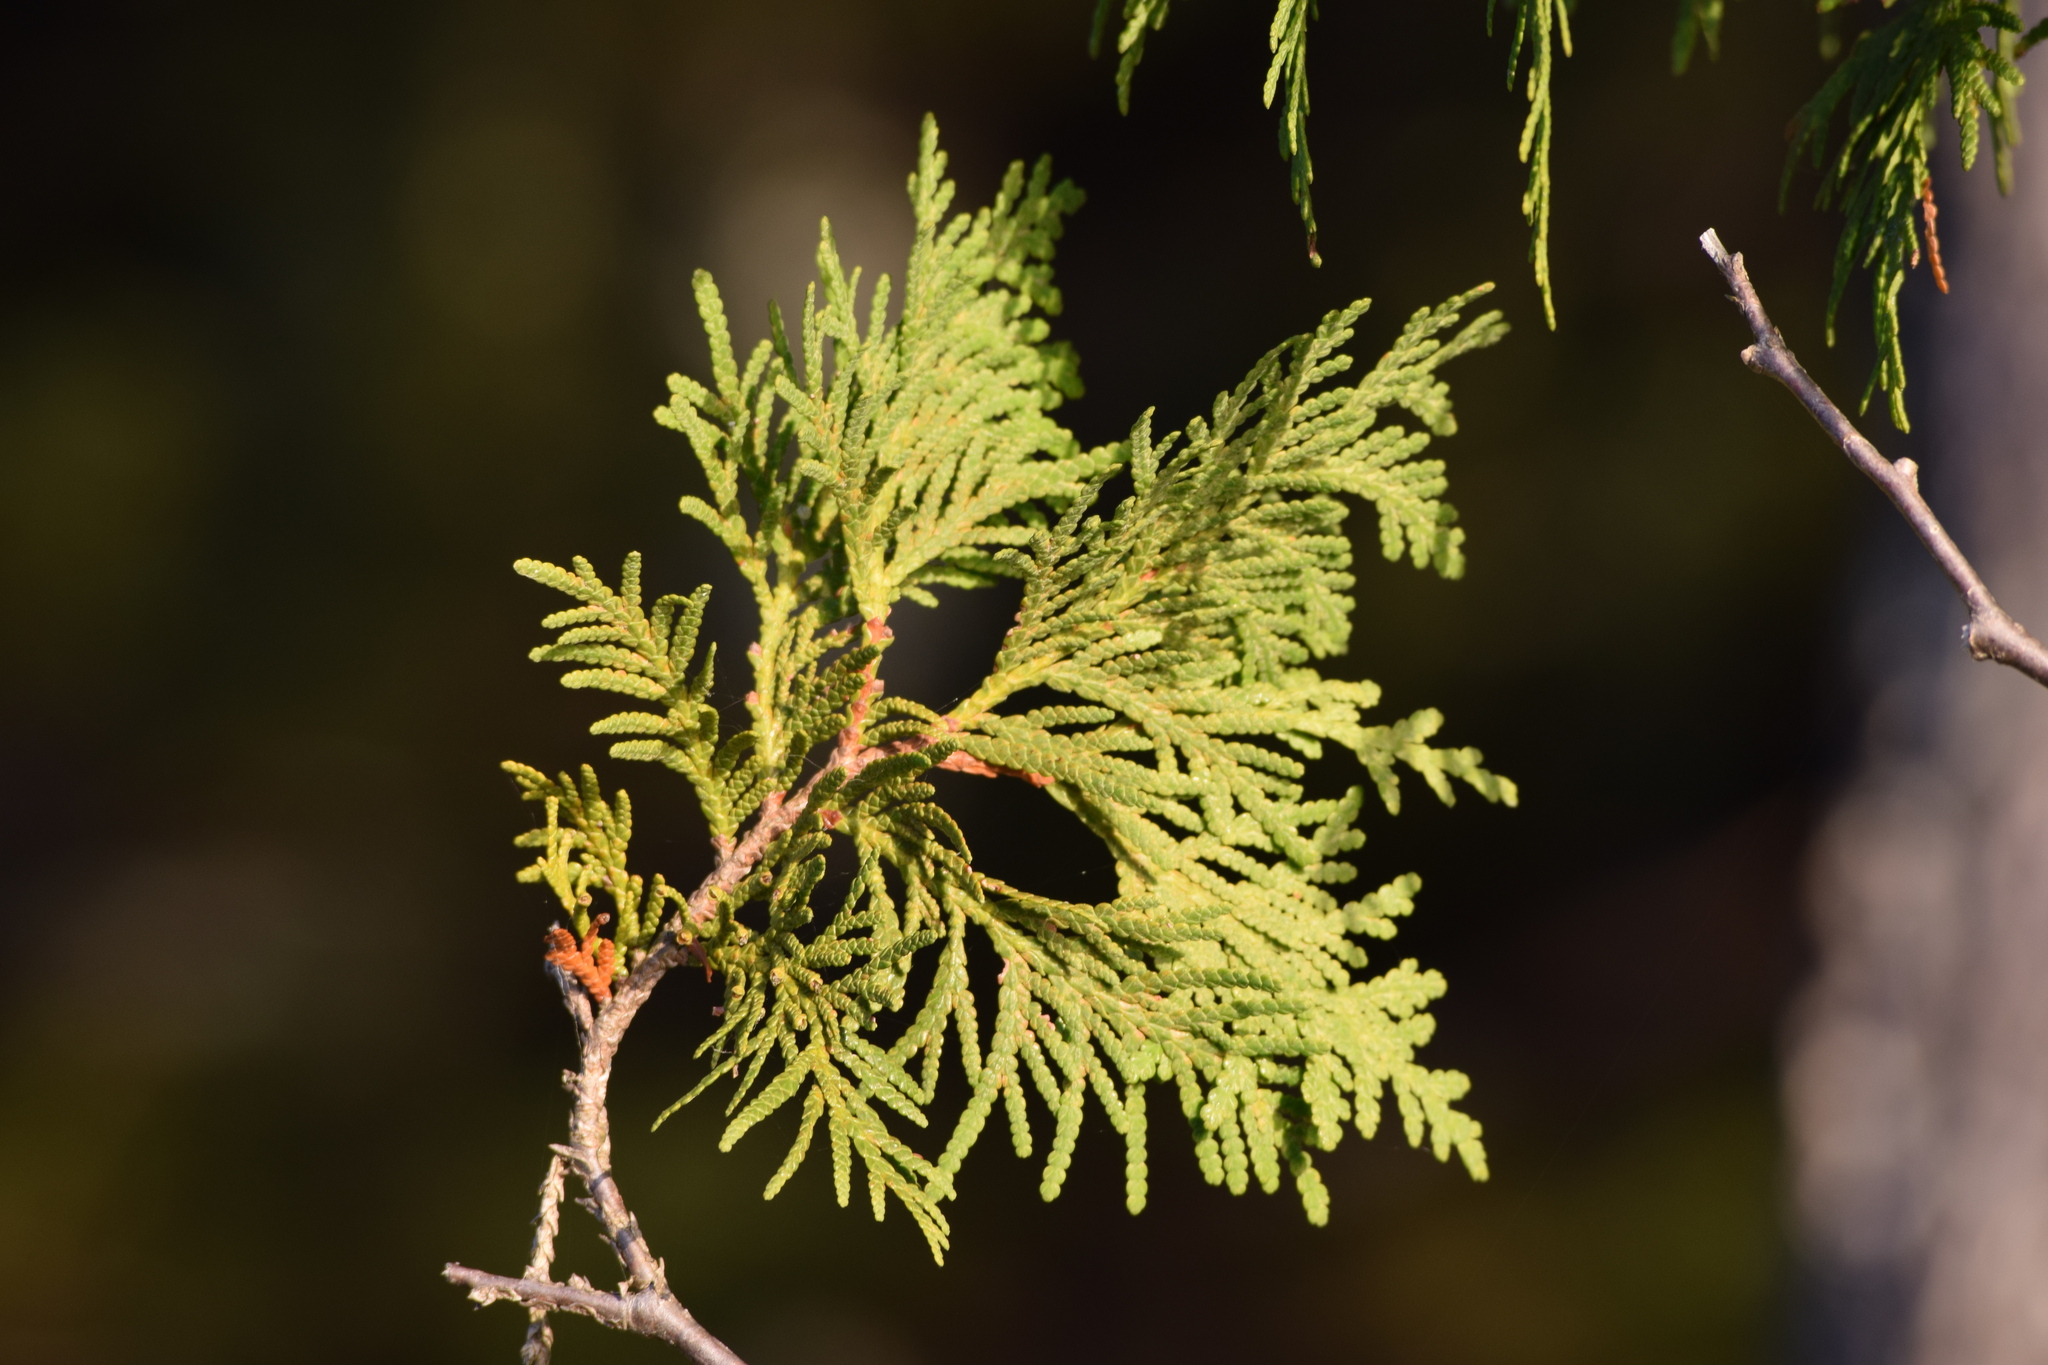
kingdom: Plantae
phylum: Tracheophyta
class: Pinopsida
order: Pinales
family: Cupressaceae
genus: Thuja
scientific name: Thuja occidentalis
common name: Northern white-cedar
